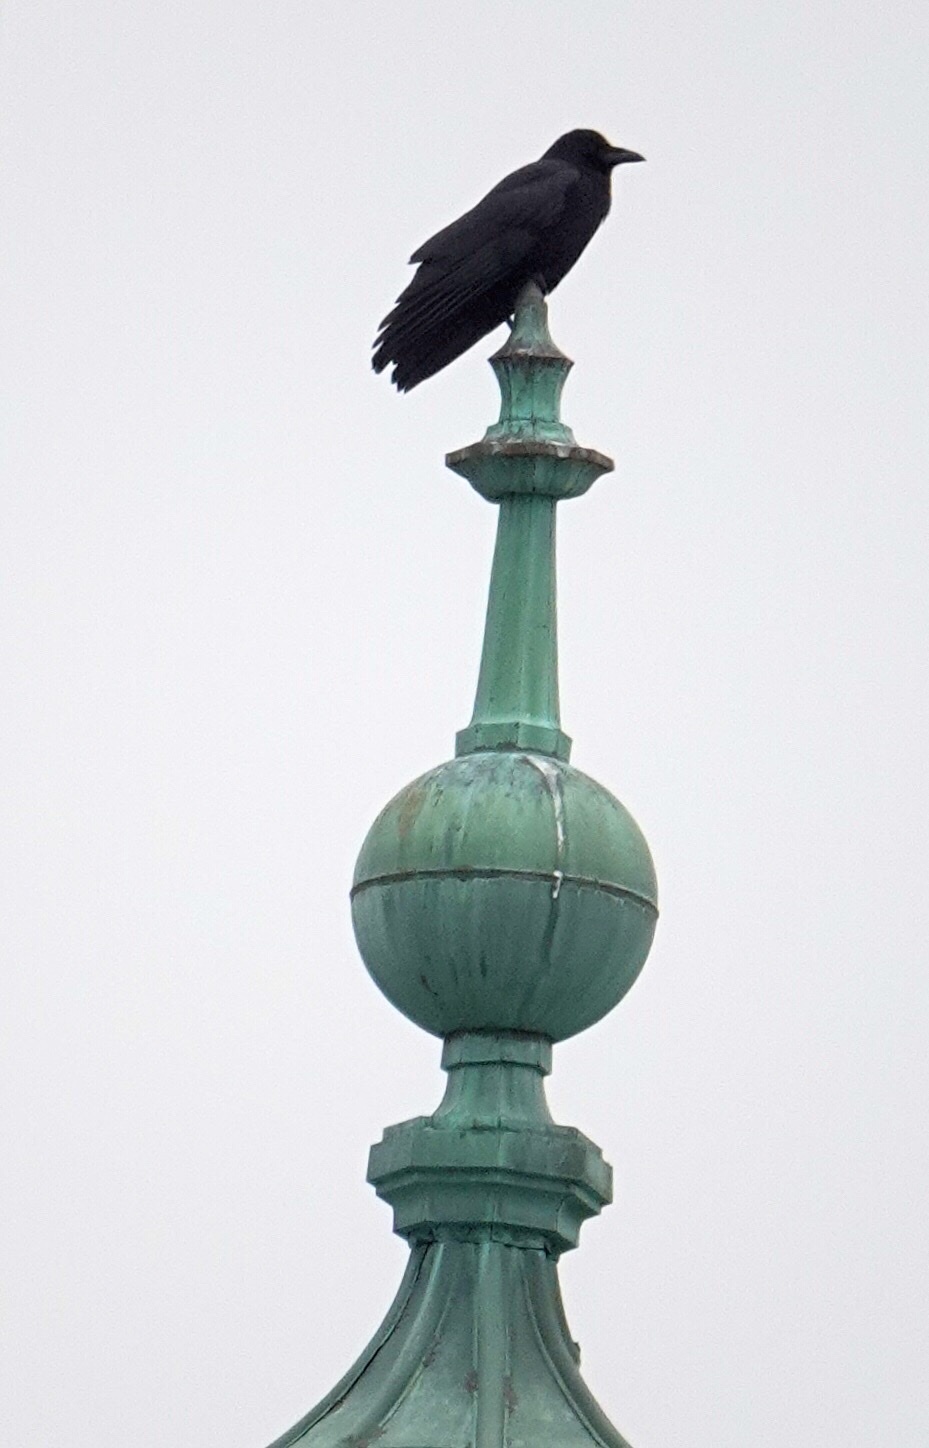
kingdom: Animalia
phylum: Chordata
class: Aves
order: Passeriformes
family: Corvidae
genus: Corvus
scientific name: Corvus brachyrhynchos
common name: American crow
